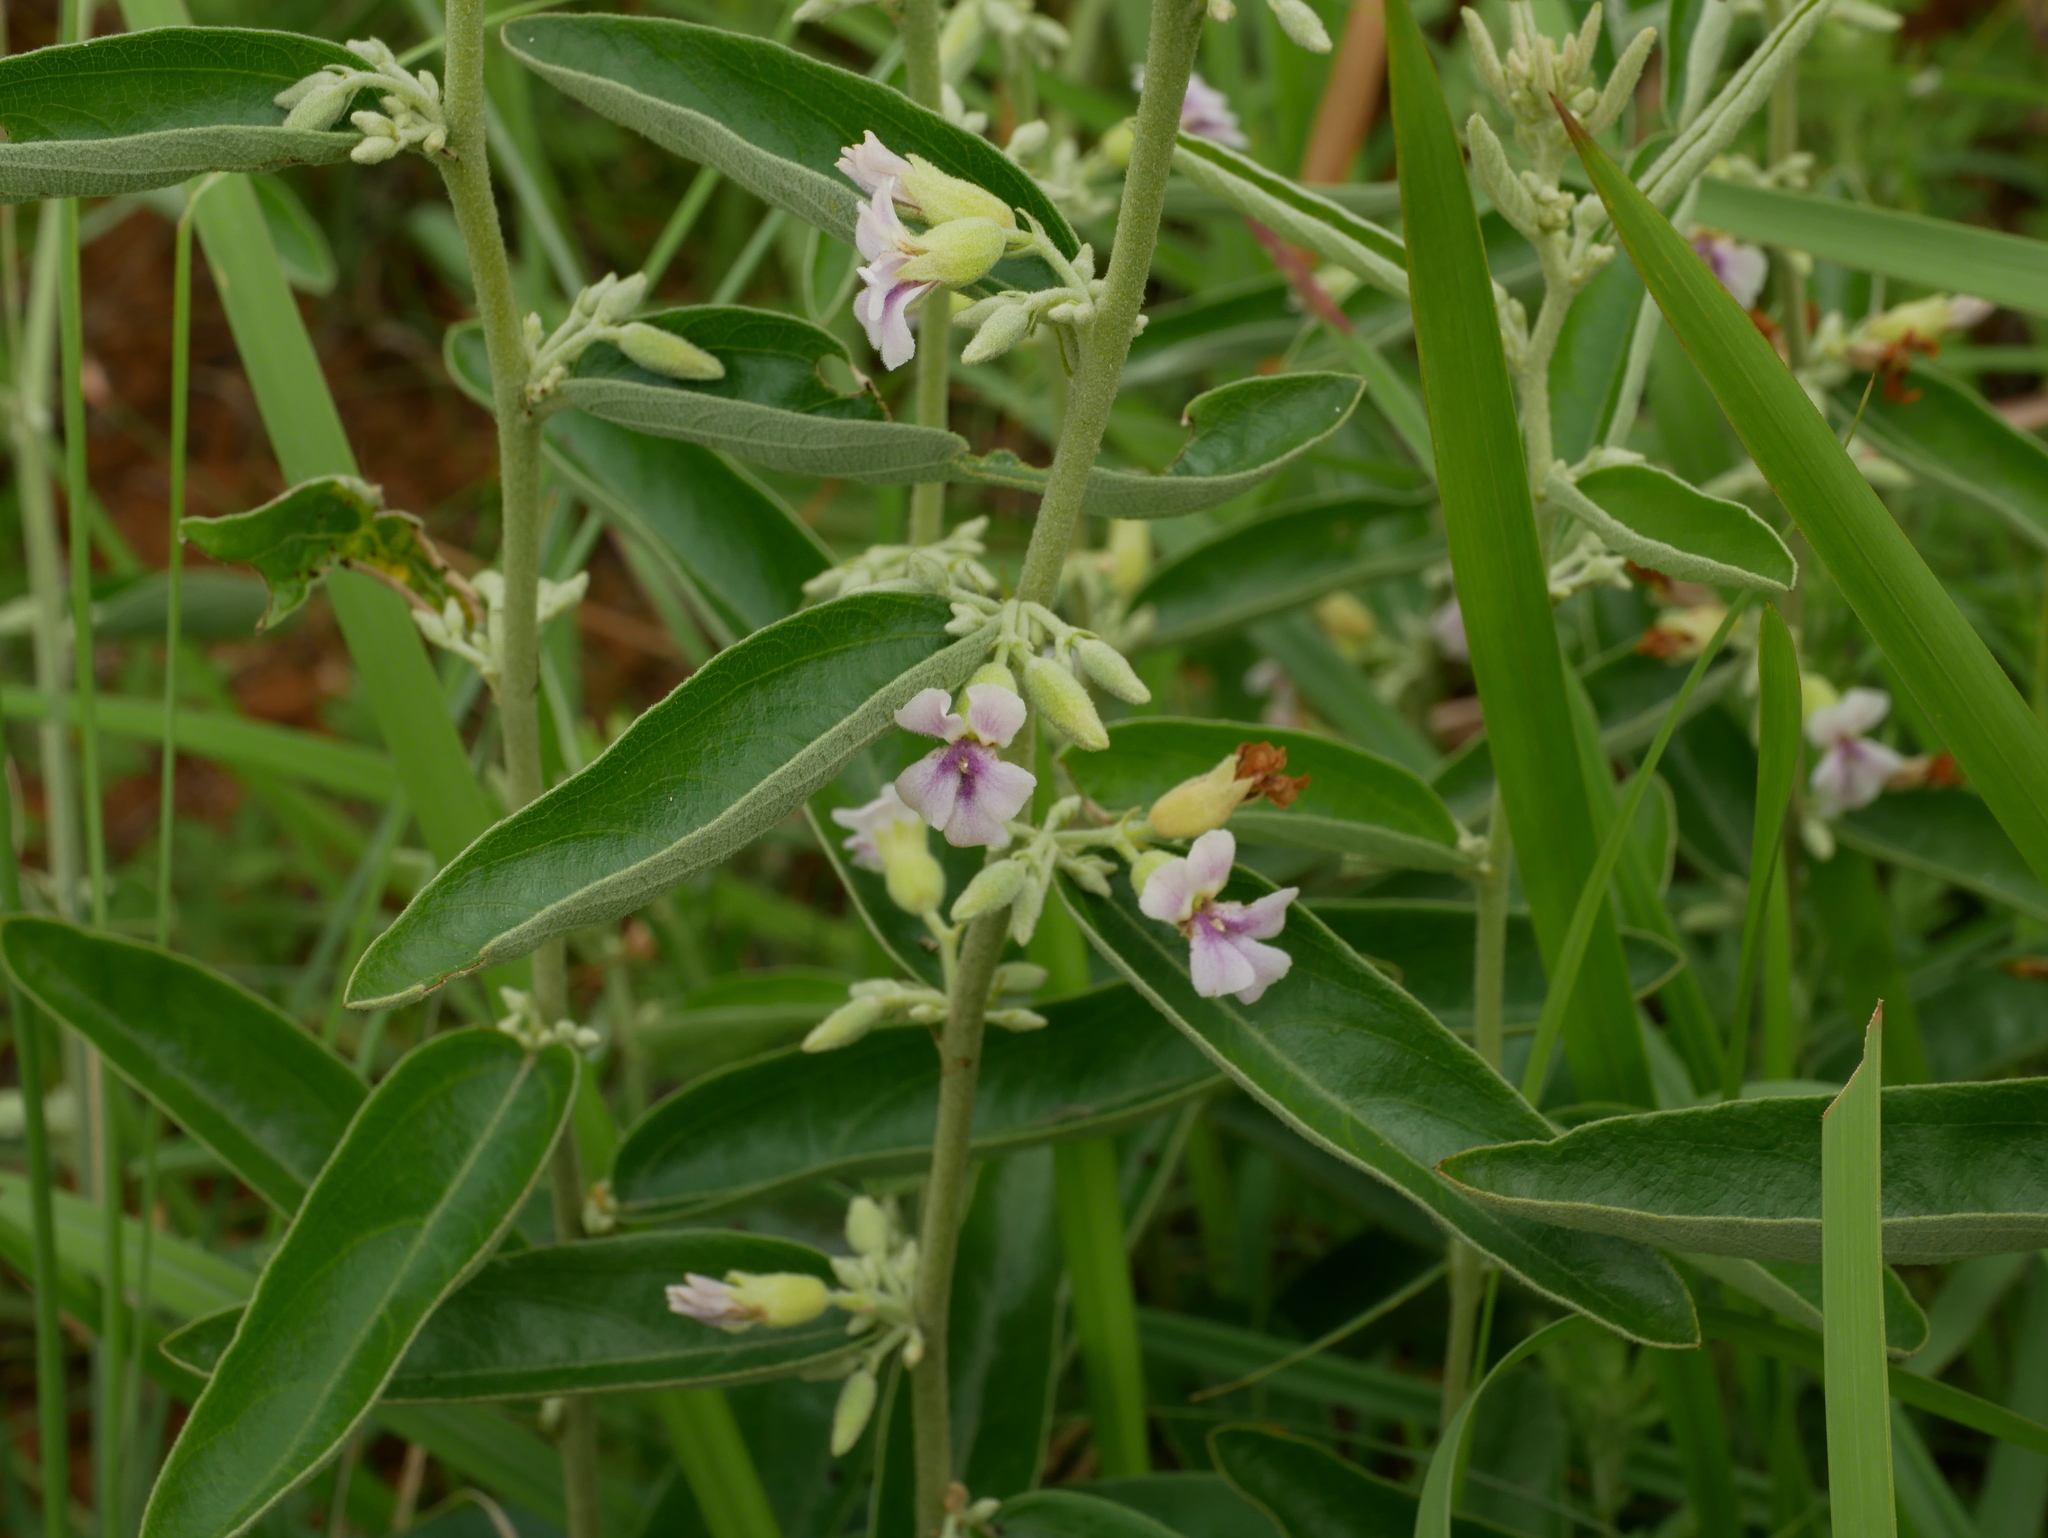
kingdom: Plantae
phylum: Tracheophyta
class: Magnoliopsida
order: Malvales
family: Malvaceae
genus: Helicteres
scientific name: Helicteres angustifolia
